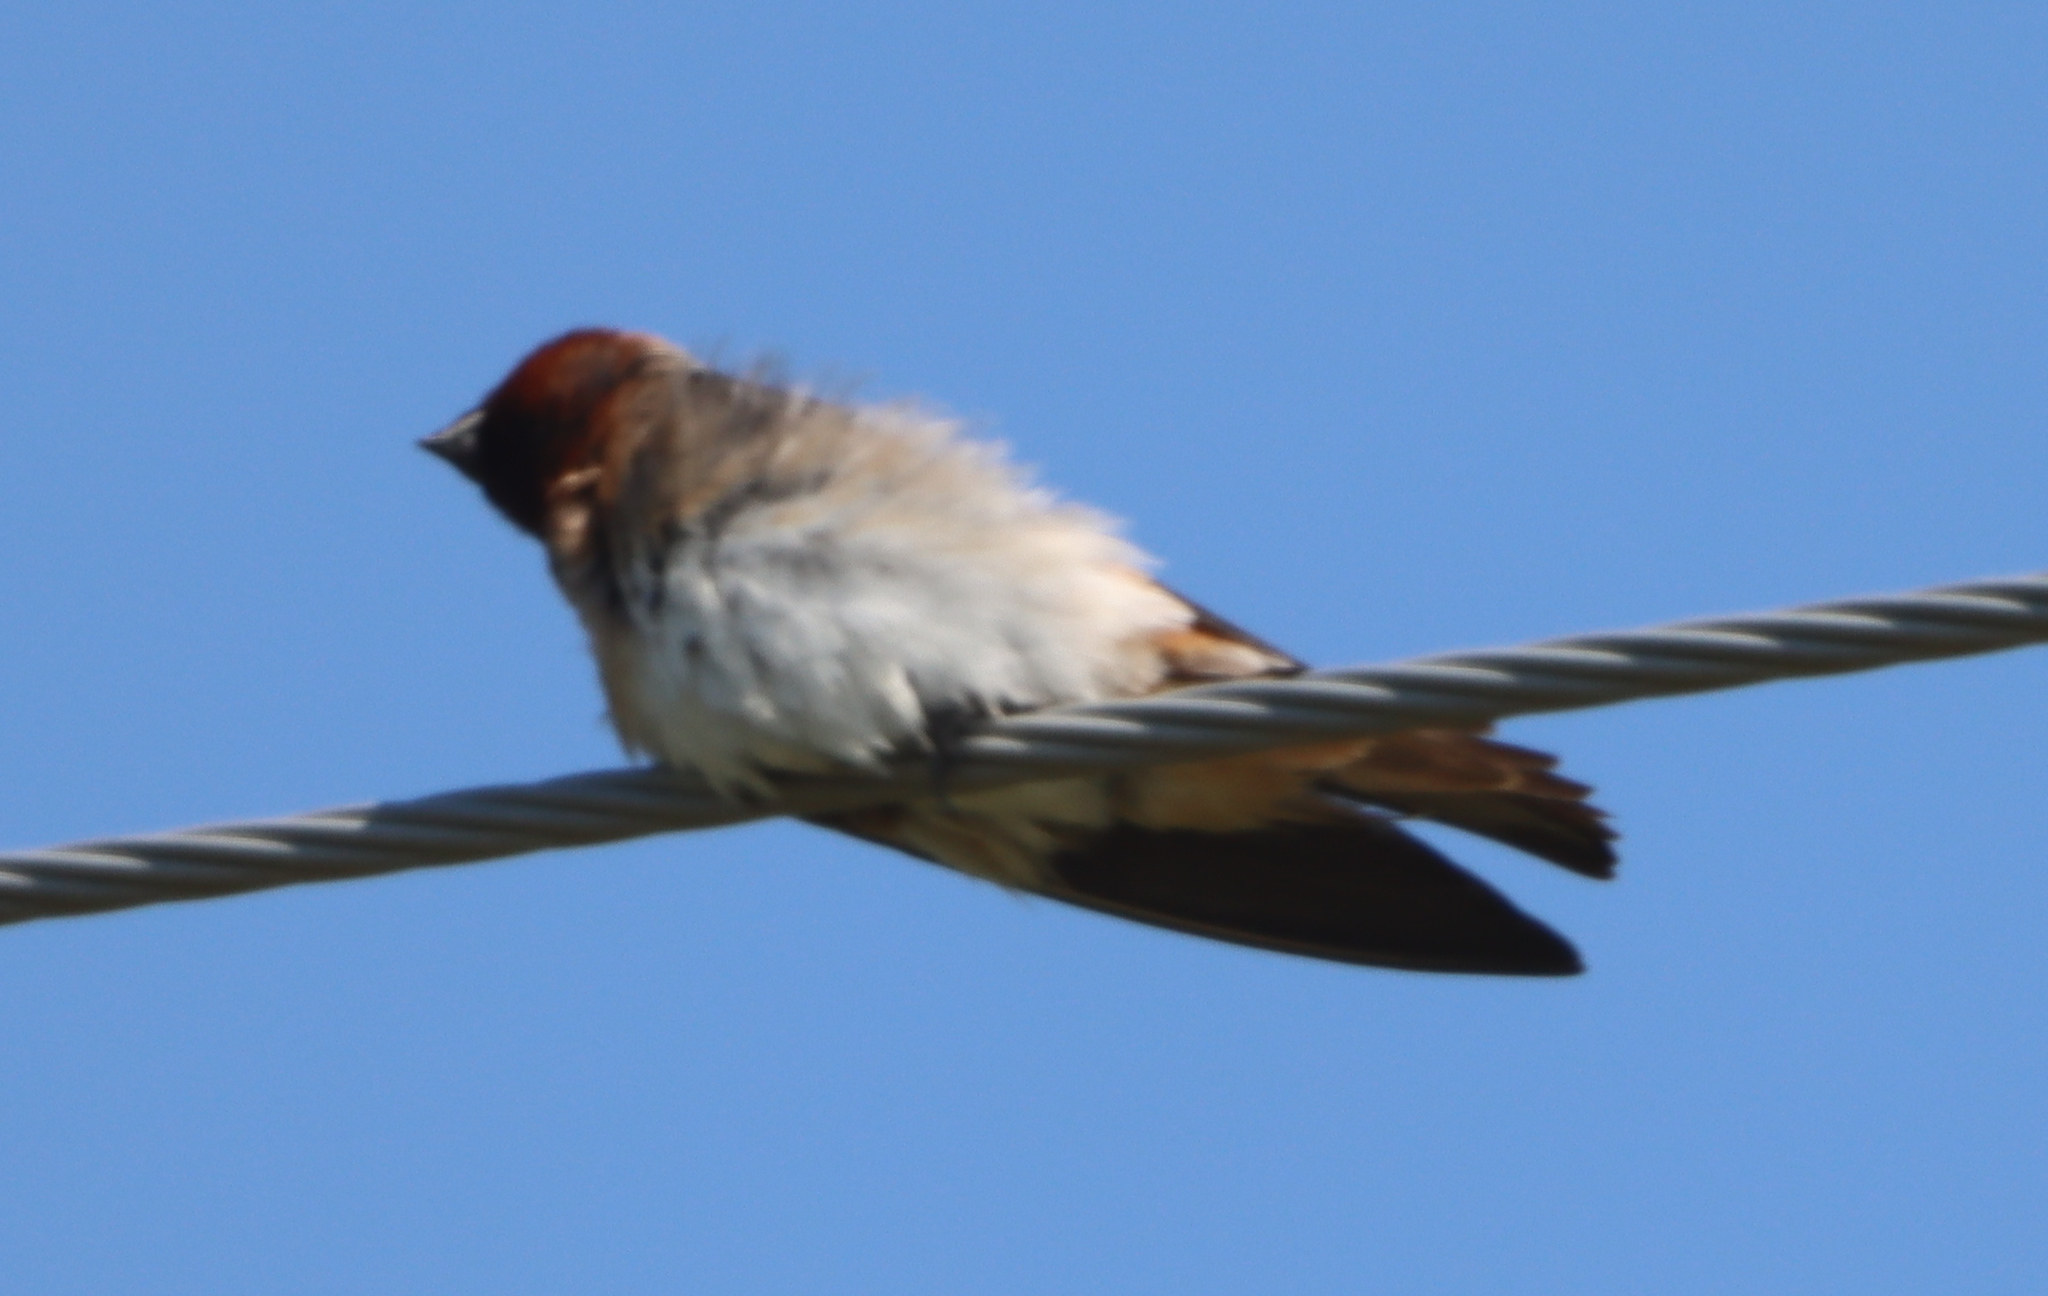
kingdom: Animalia
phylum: Chordata
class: Aves
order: Passeriformes
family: Hirundinidae
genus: Petrochelidon
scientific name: Petrochelidon pyrrhonota
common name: American cliff swallow
